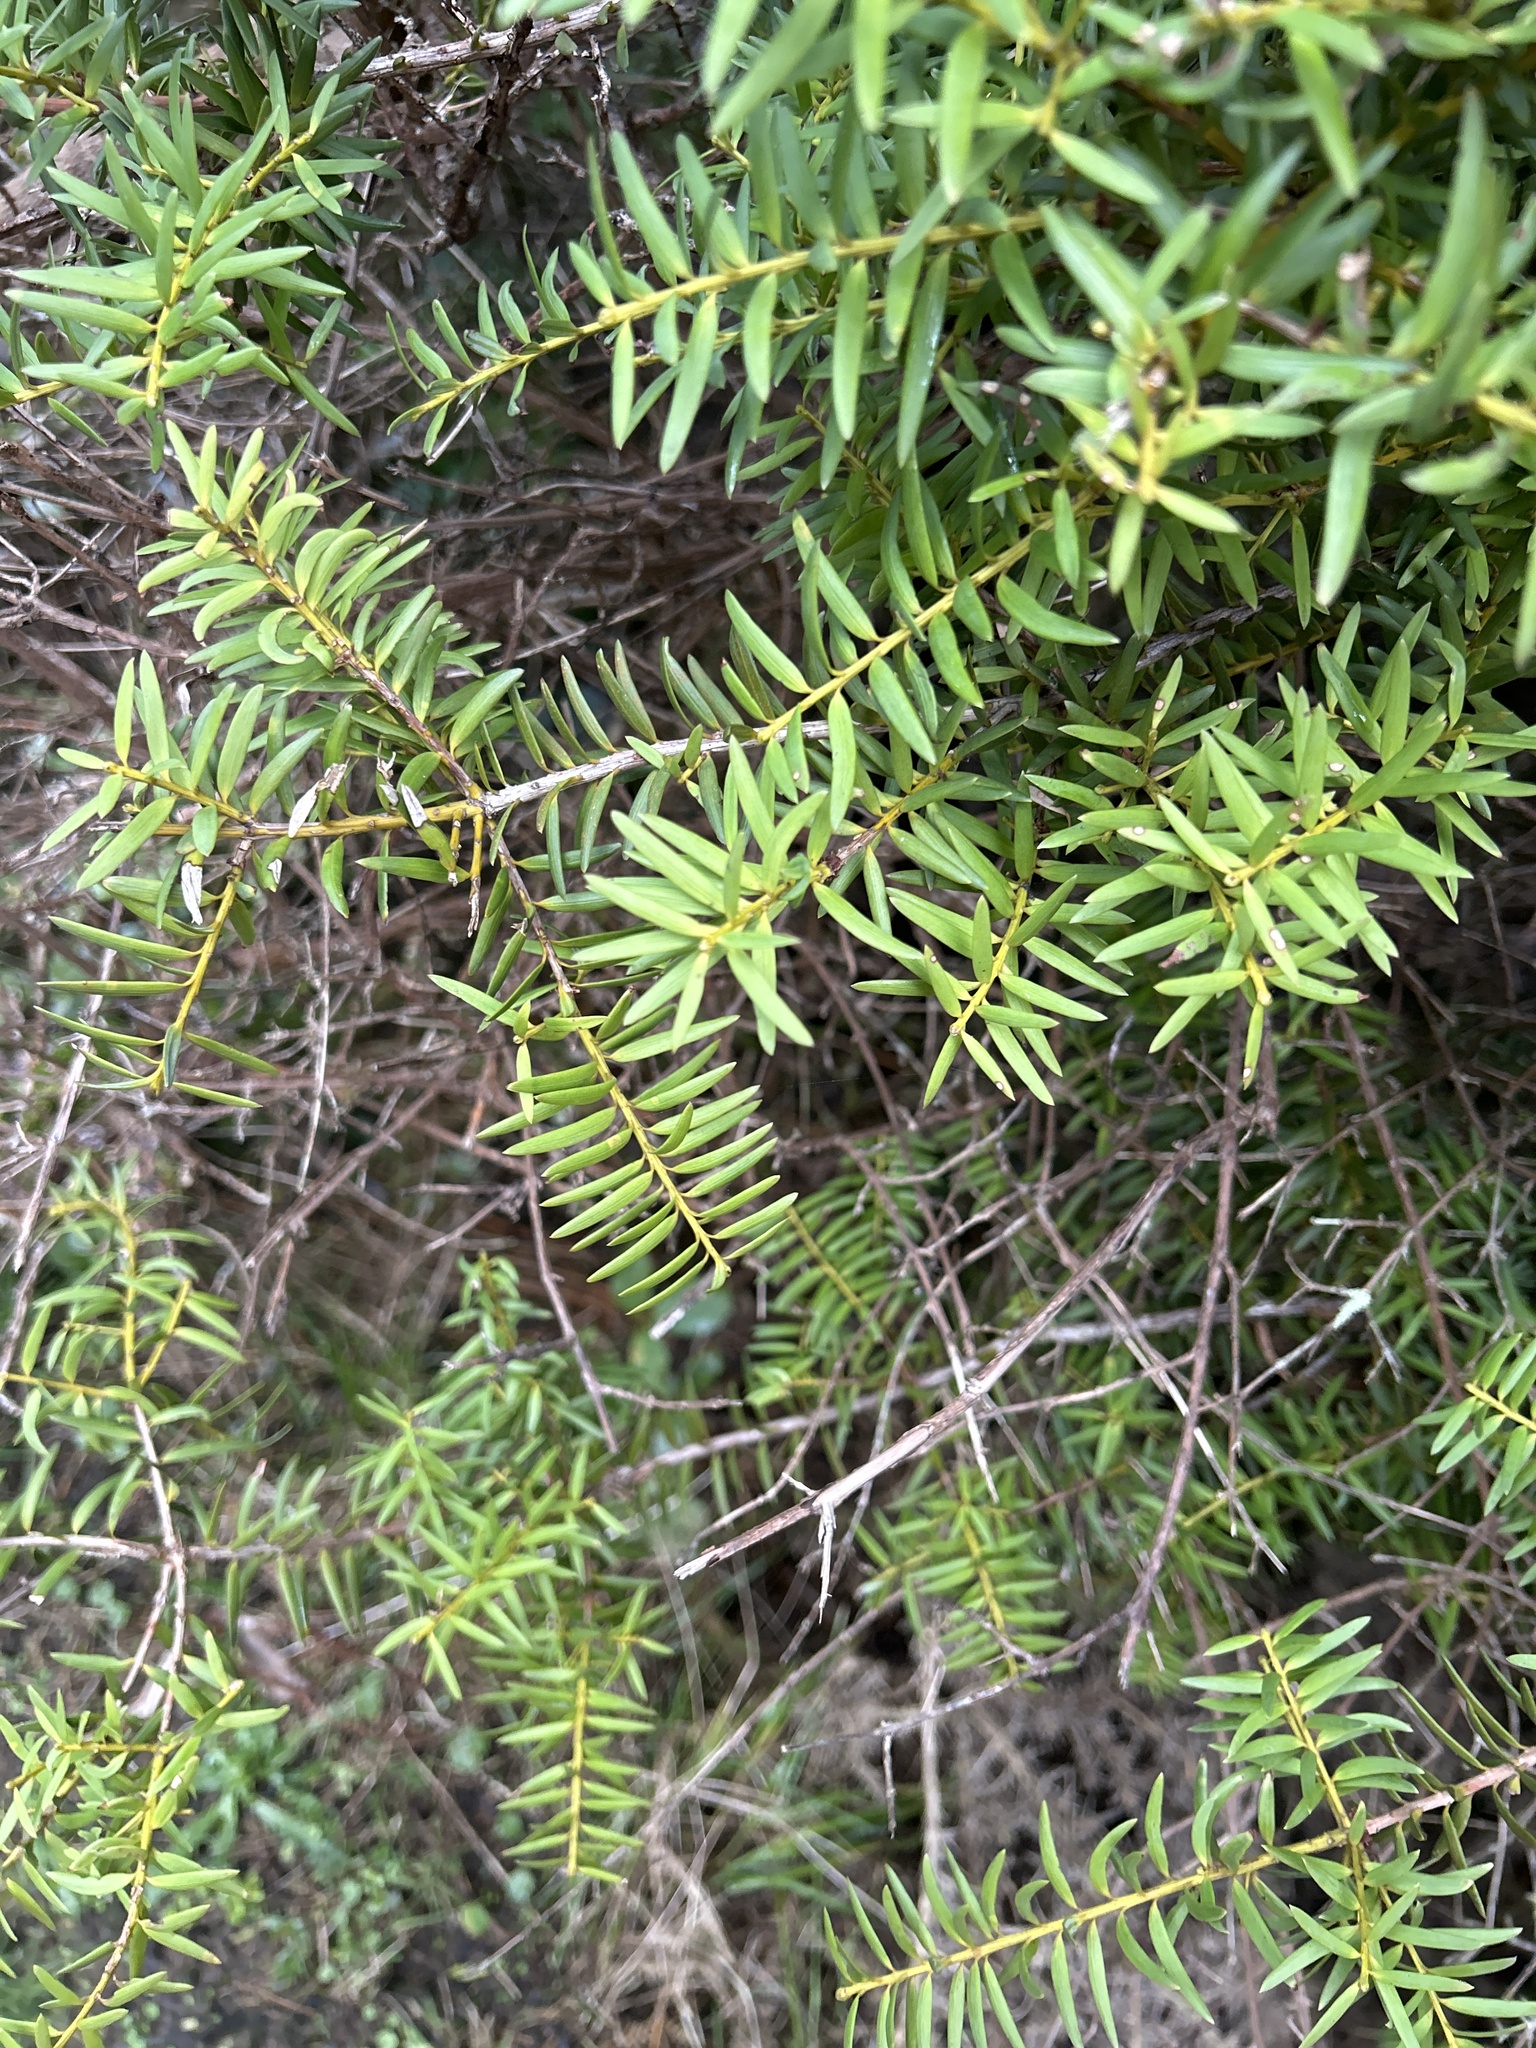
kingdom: Plantae
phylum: Tracheophyta
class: Pinopsida
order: Pinales
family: Podocarpaceae
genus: Podocarpus
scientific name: Podocarpus totara
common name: Totara
